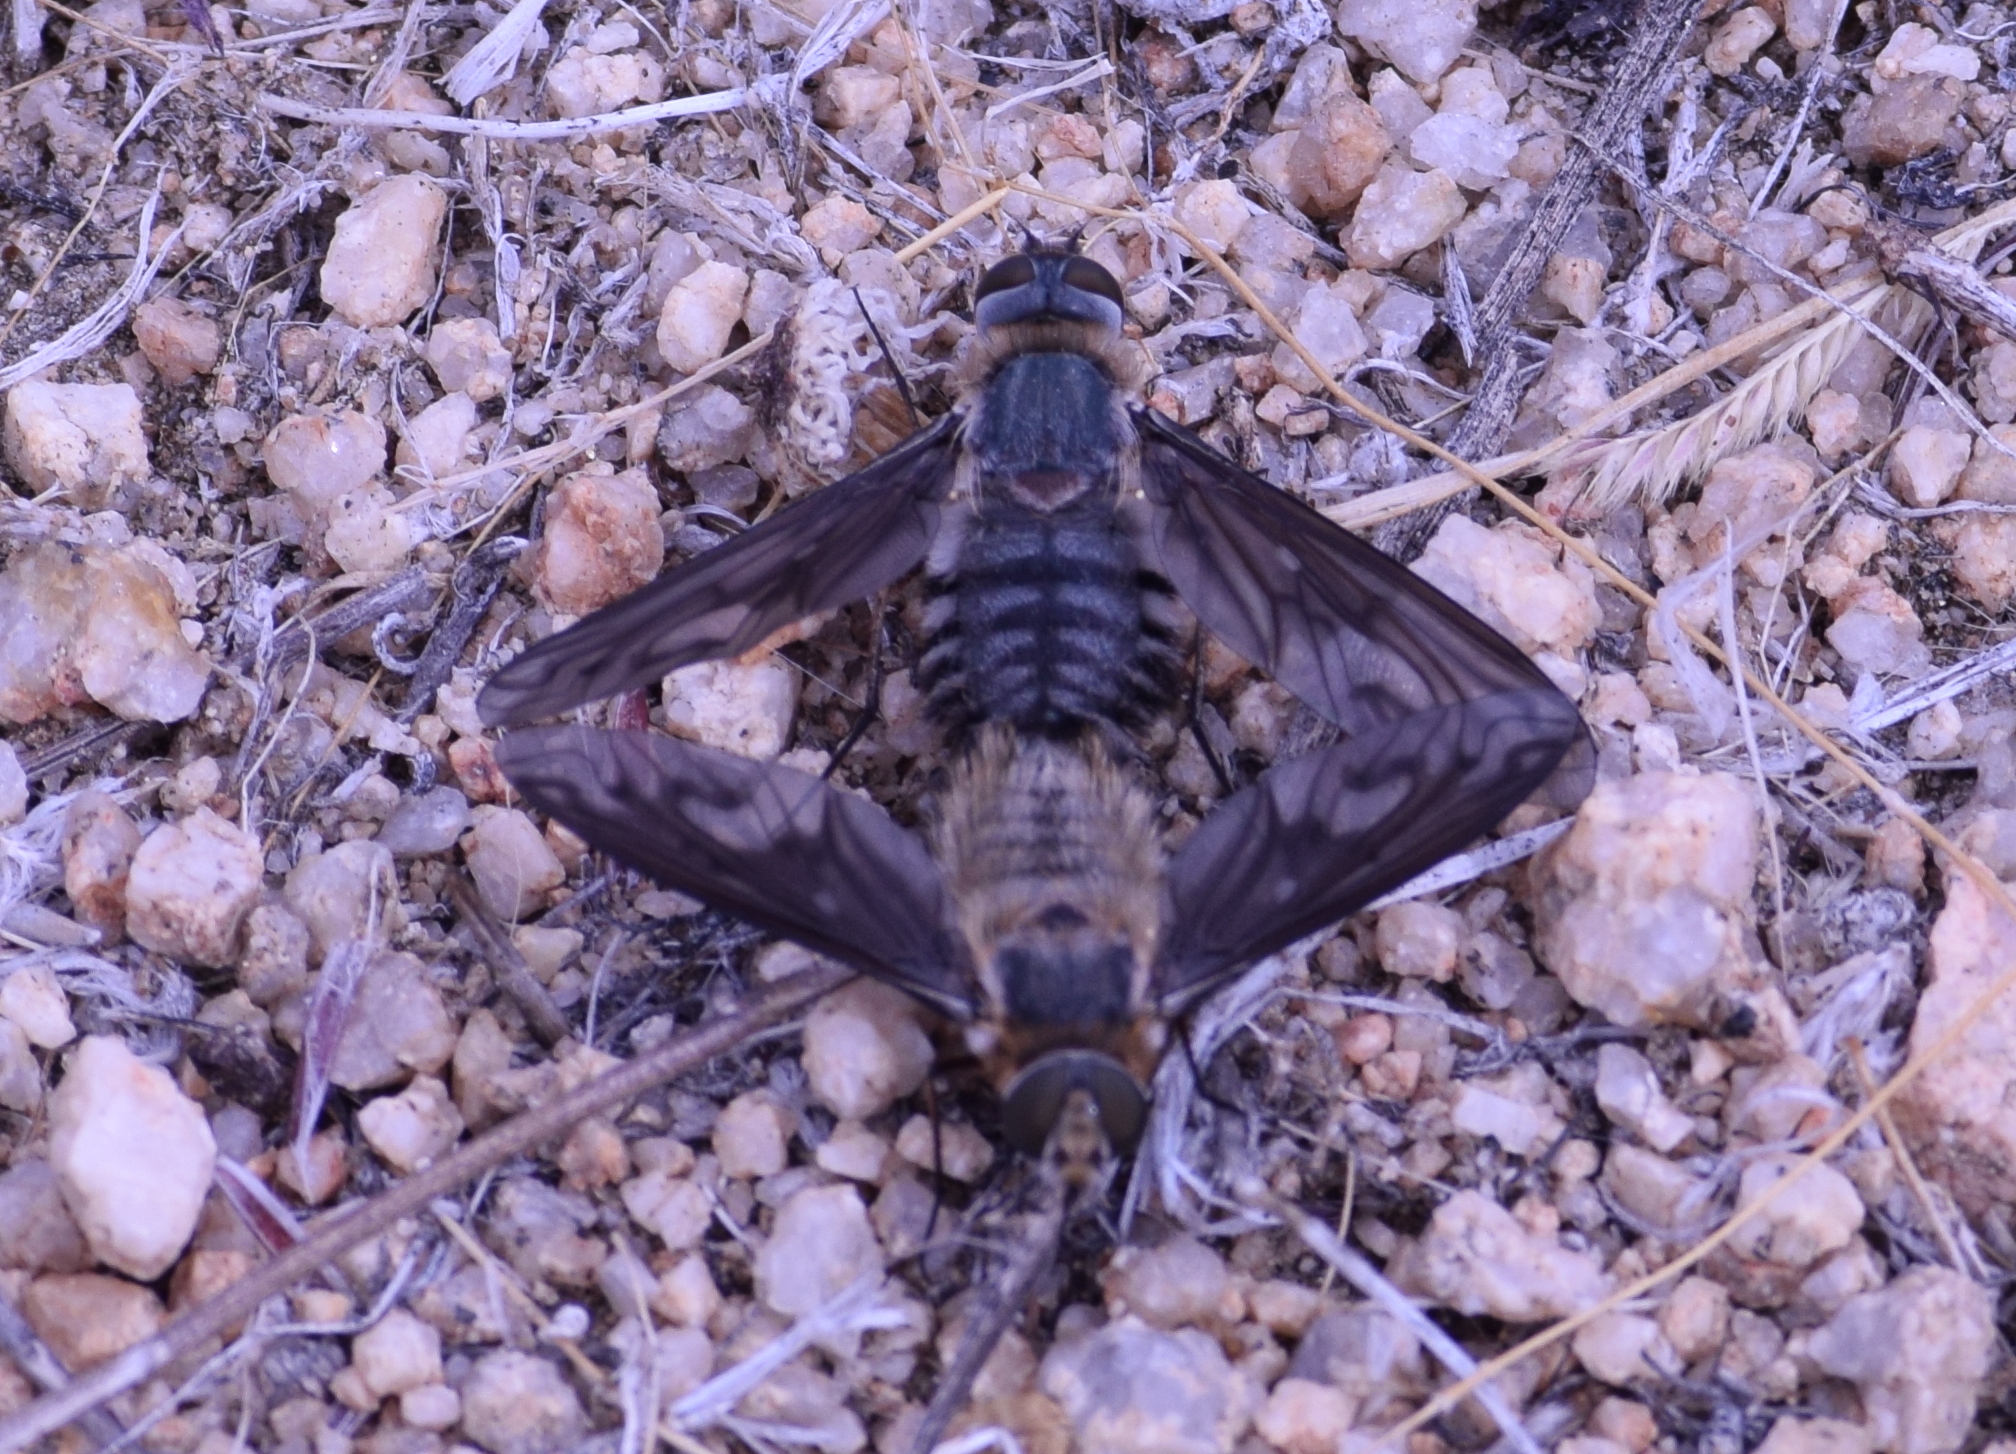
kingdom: Animalia
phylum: Arthropoda
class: Insecta
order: Diptera
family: Bombyliidae
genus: Poecilanthrax
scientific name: Poecilanthrax californicus
